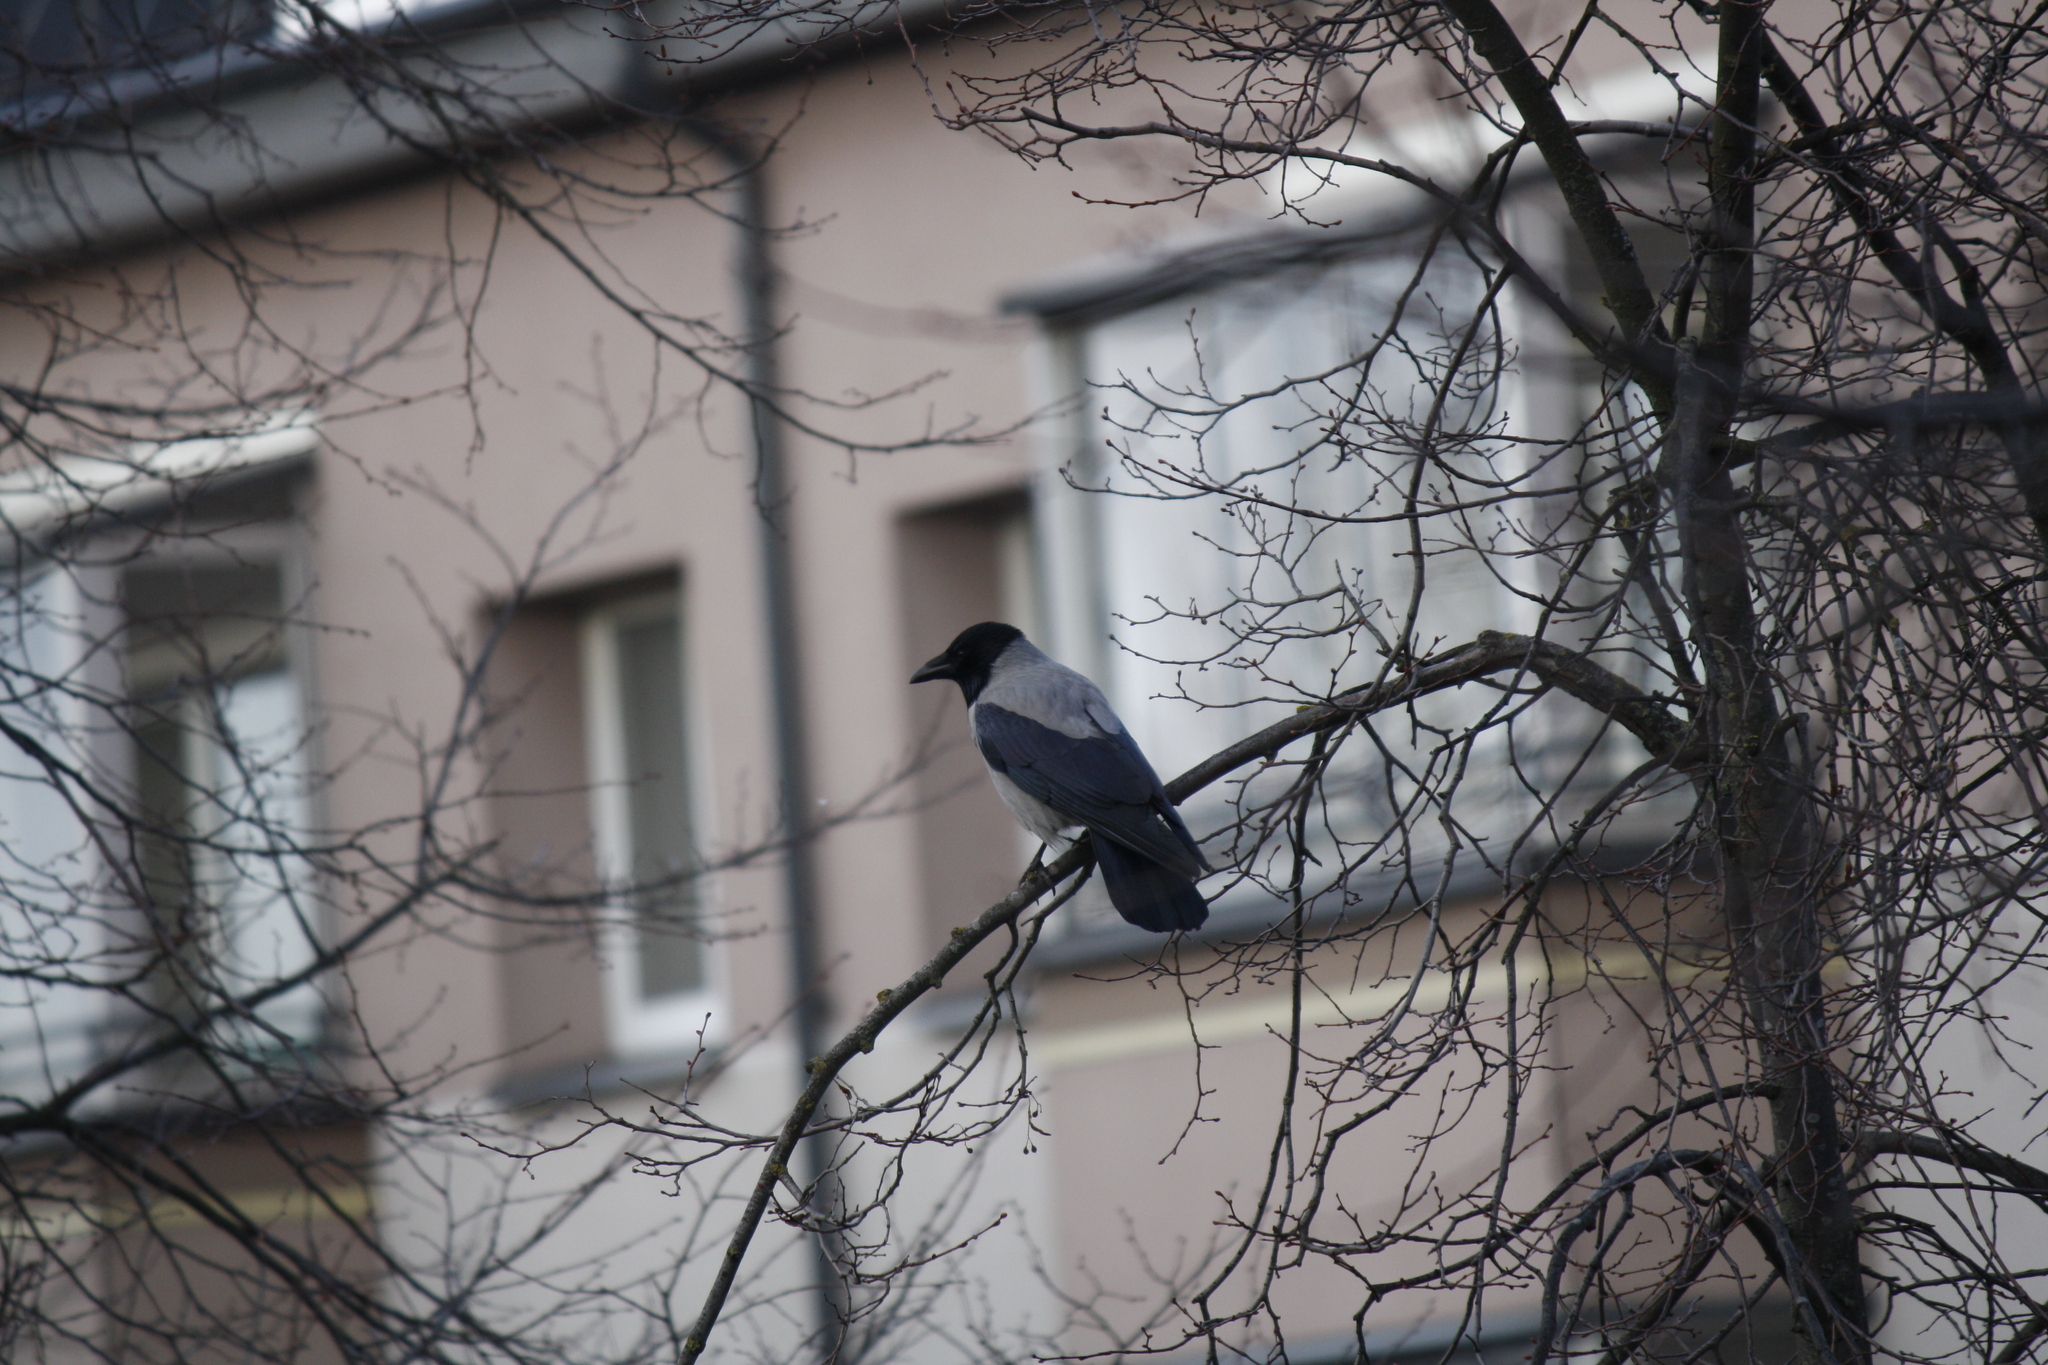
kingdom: Animalia
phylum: Chordata
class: Aves
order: Passeriformes
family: Corvidae
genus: Corvus
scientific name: Corvus cornix
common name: Hooded crow
